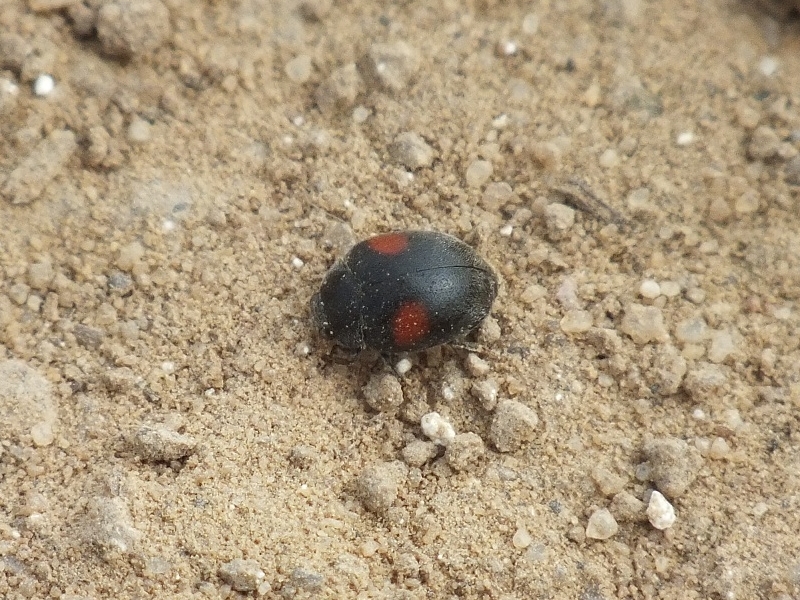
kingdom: Animalia
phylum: Arthropoda
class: Insecta
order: Coleoptera
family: Coccinellidae
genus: Scymnus
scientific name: Scymnus apetzi
